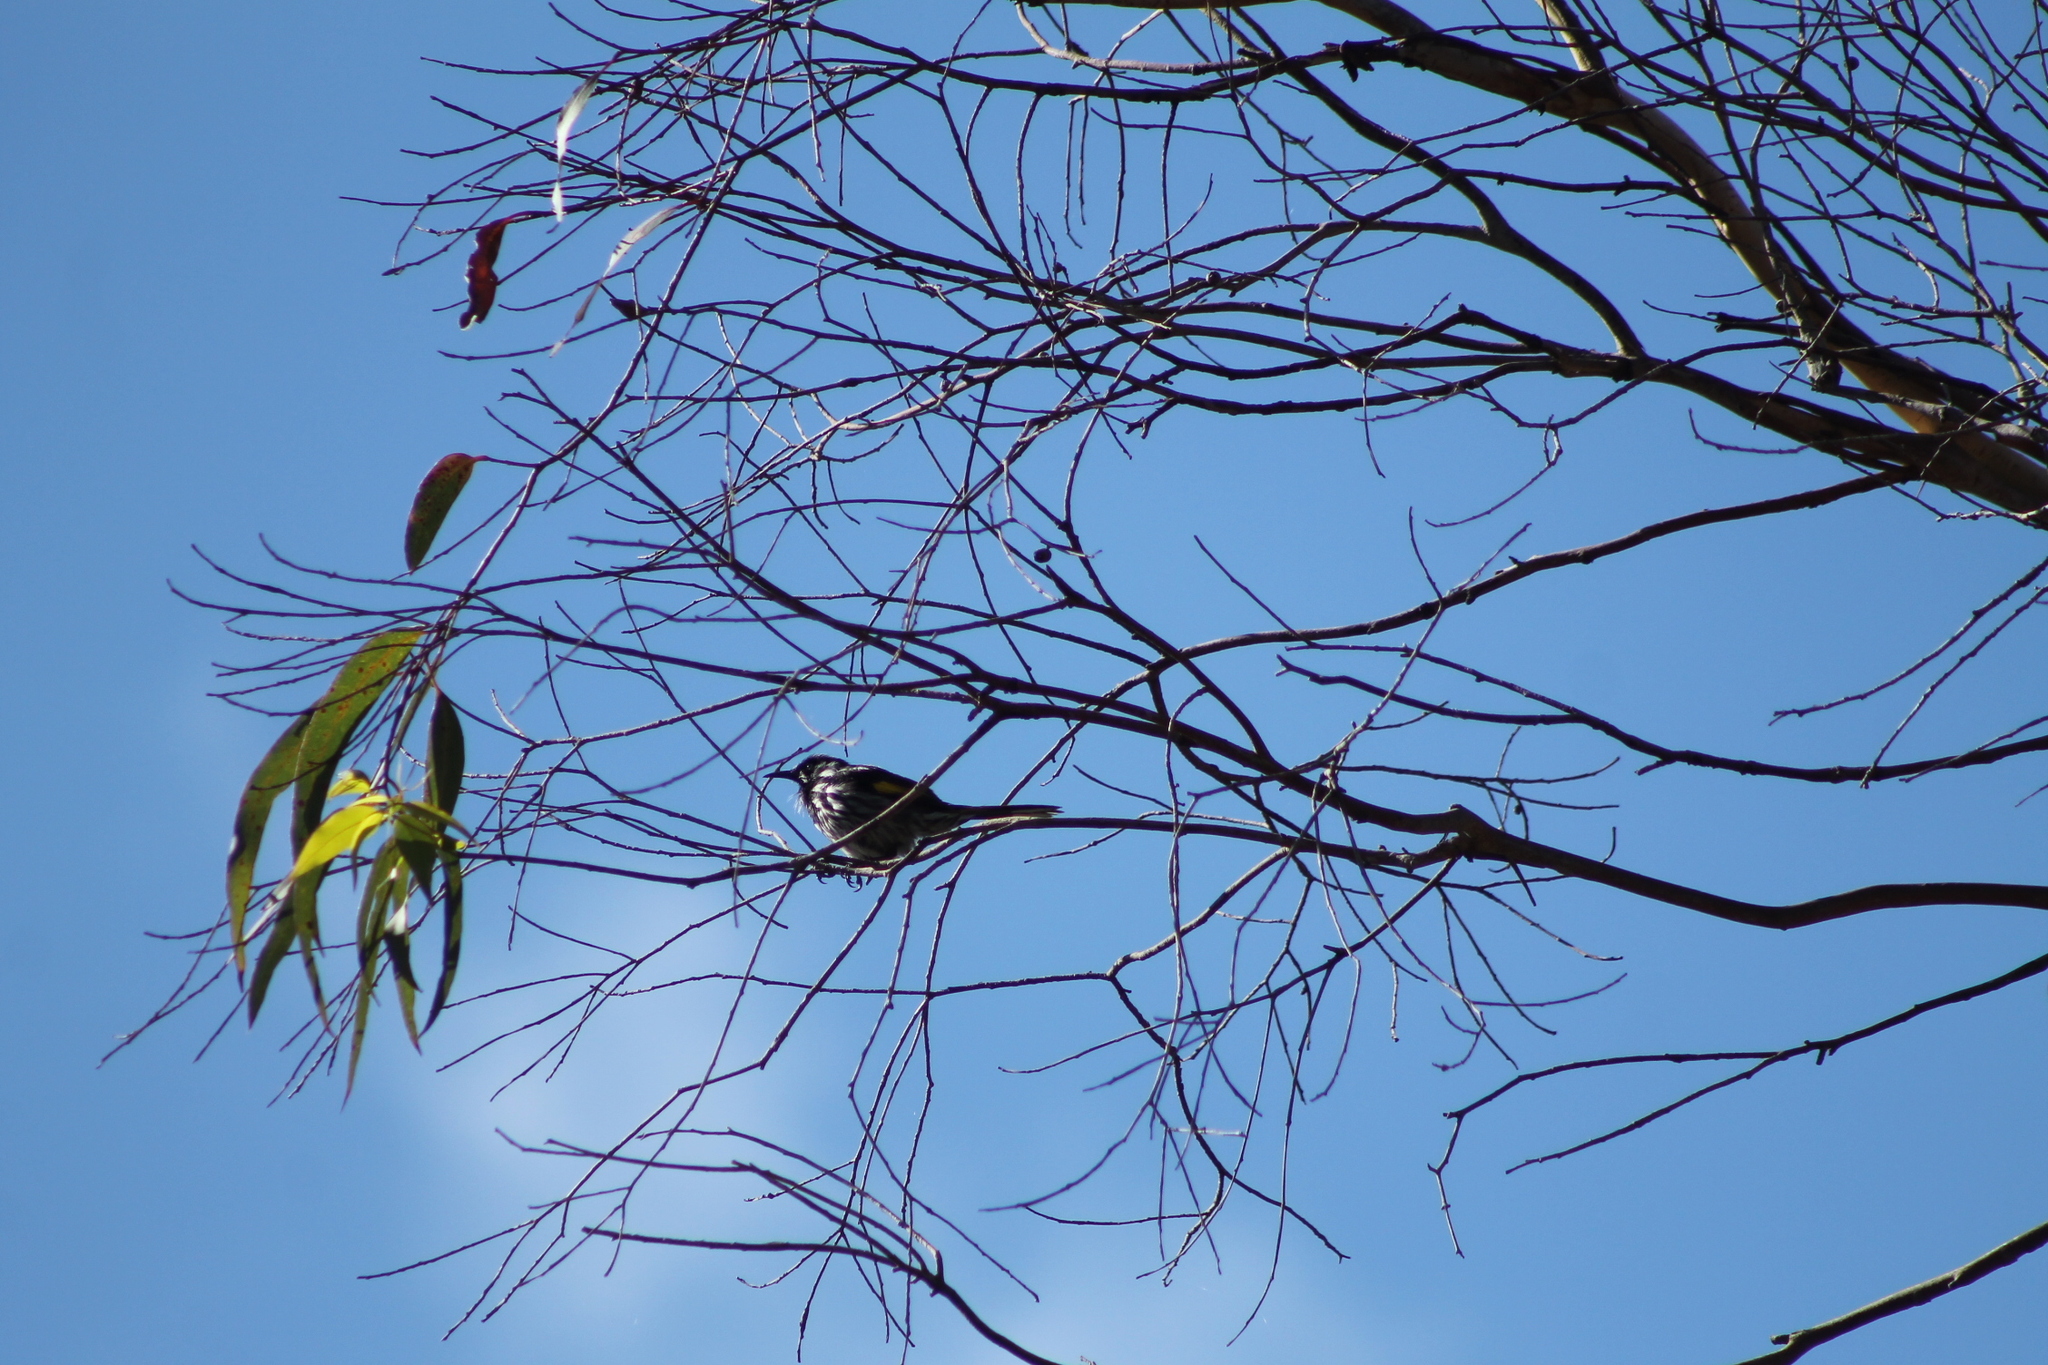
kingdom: Animalia
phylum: Chordata
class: Aves
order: Passeriformes
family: Meliphagidae
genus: Phylidonyris
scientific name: Phylidonyris novaehollandiae
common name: New holland honeyeater
